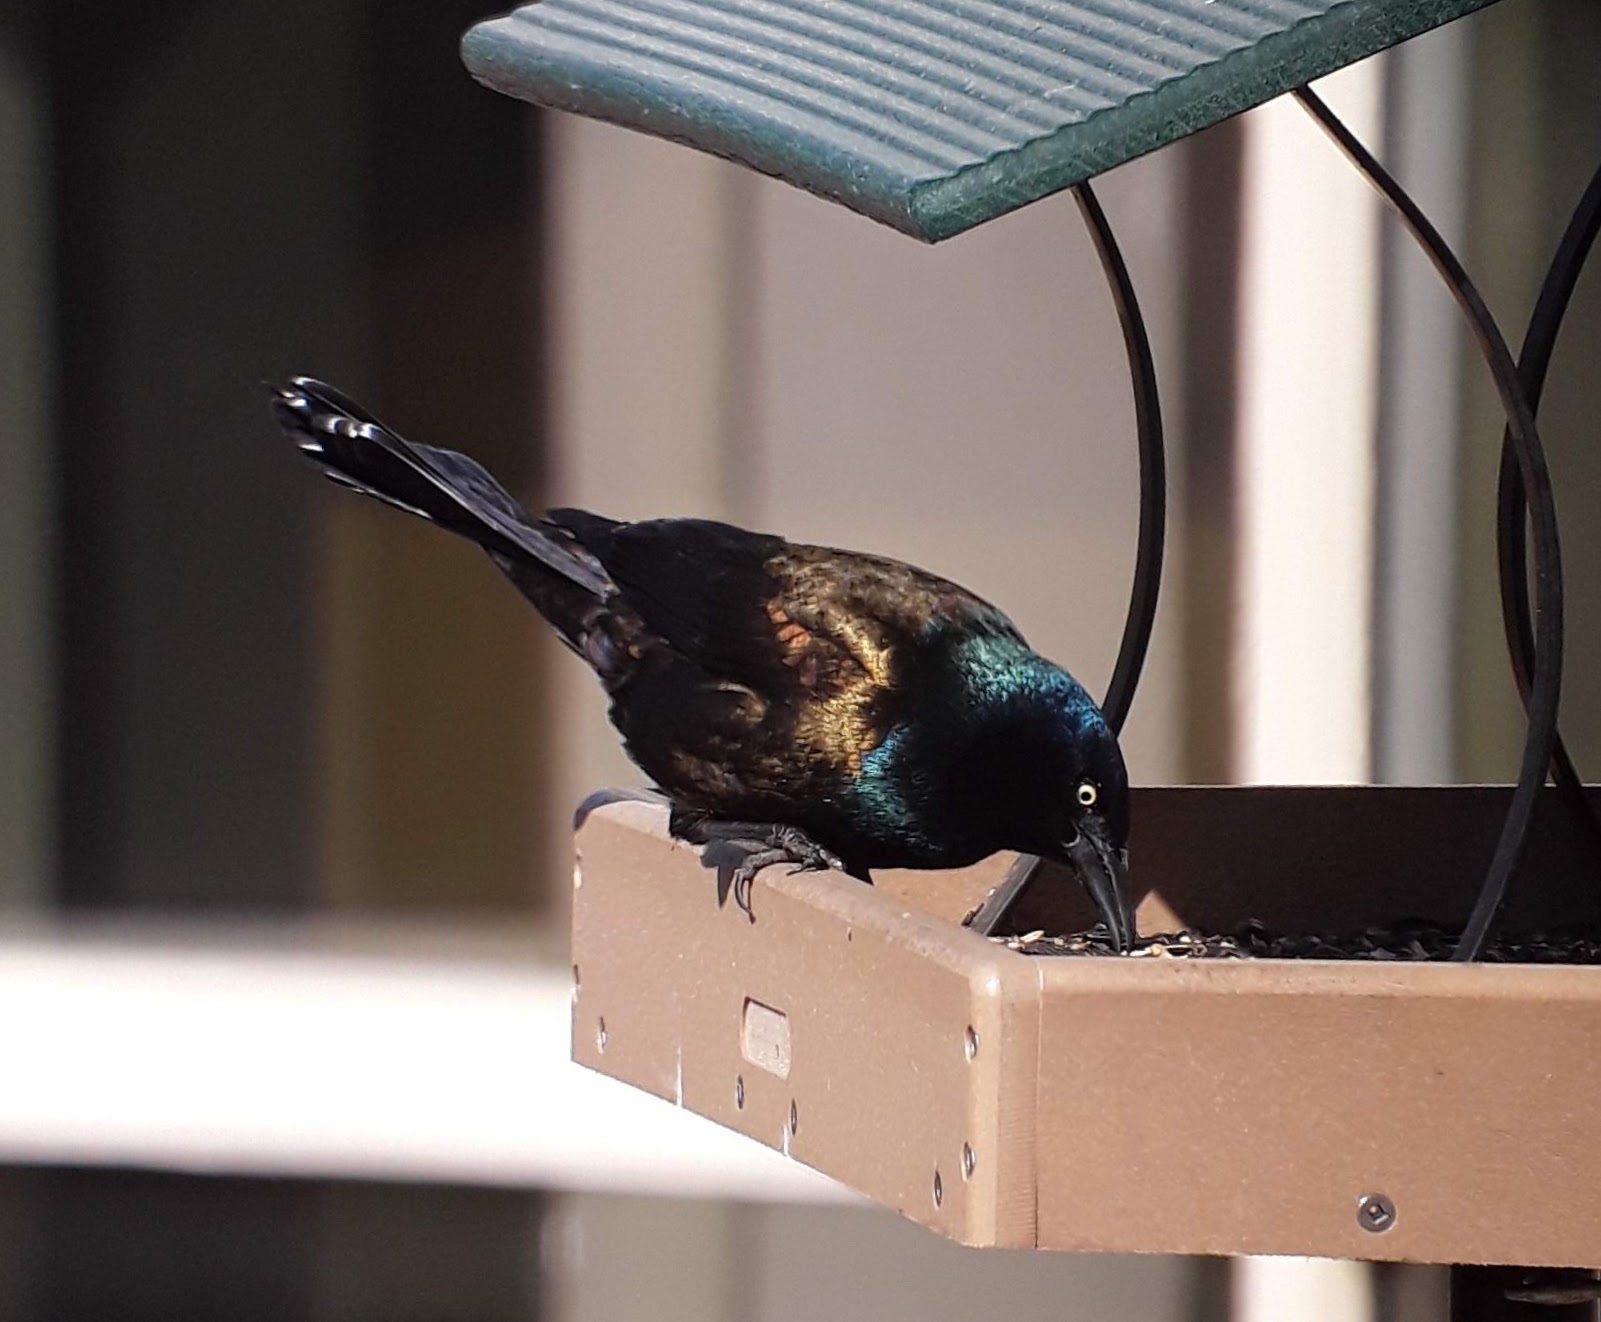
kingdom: Animalia
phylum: Chordata
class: Aves
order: Passeriformes
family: Icteridae
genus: Quiscalus
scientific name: Quiscalus quiscula
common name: Common grackle
